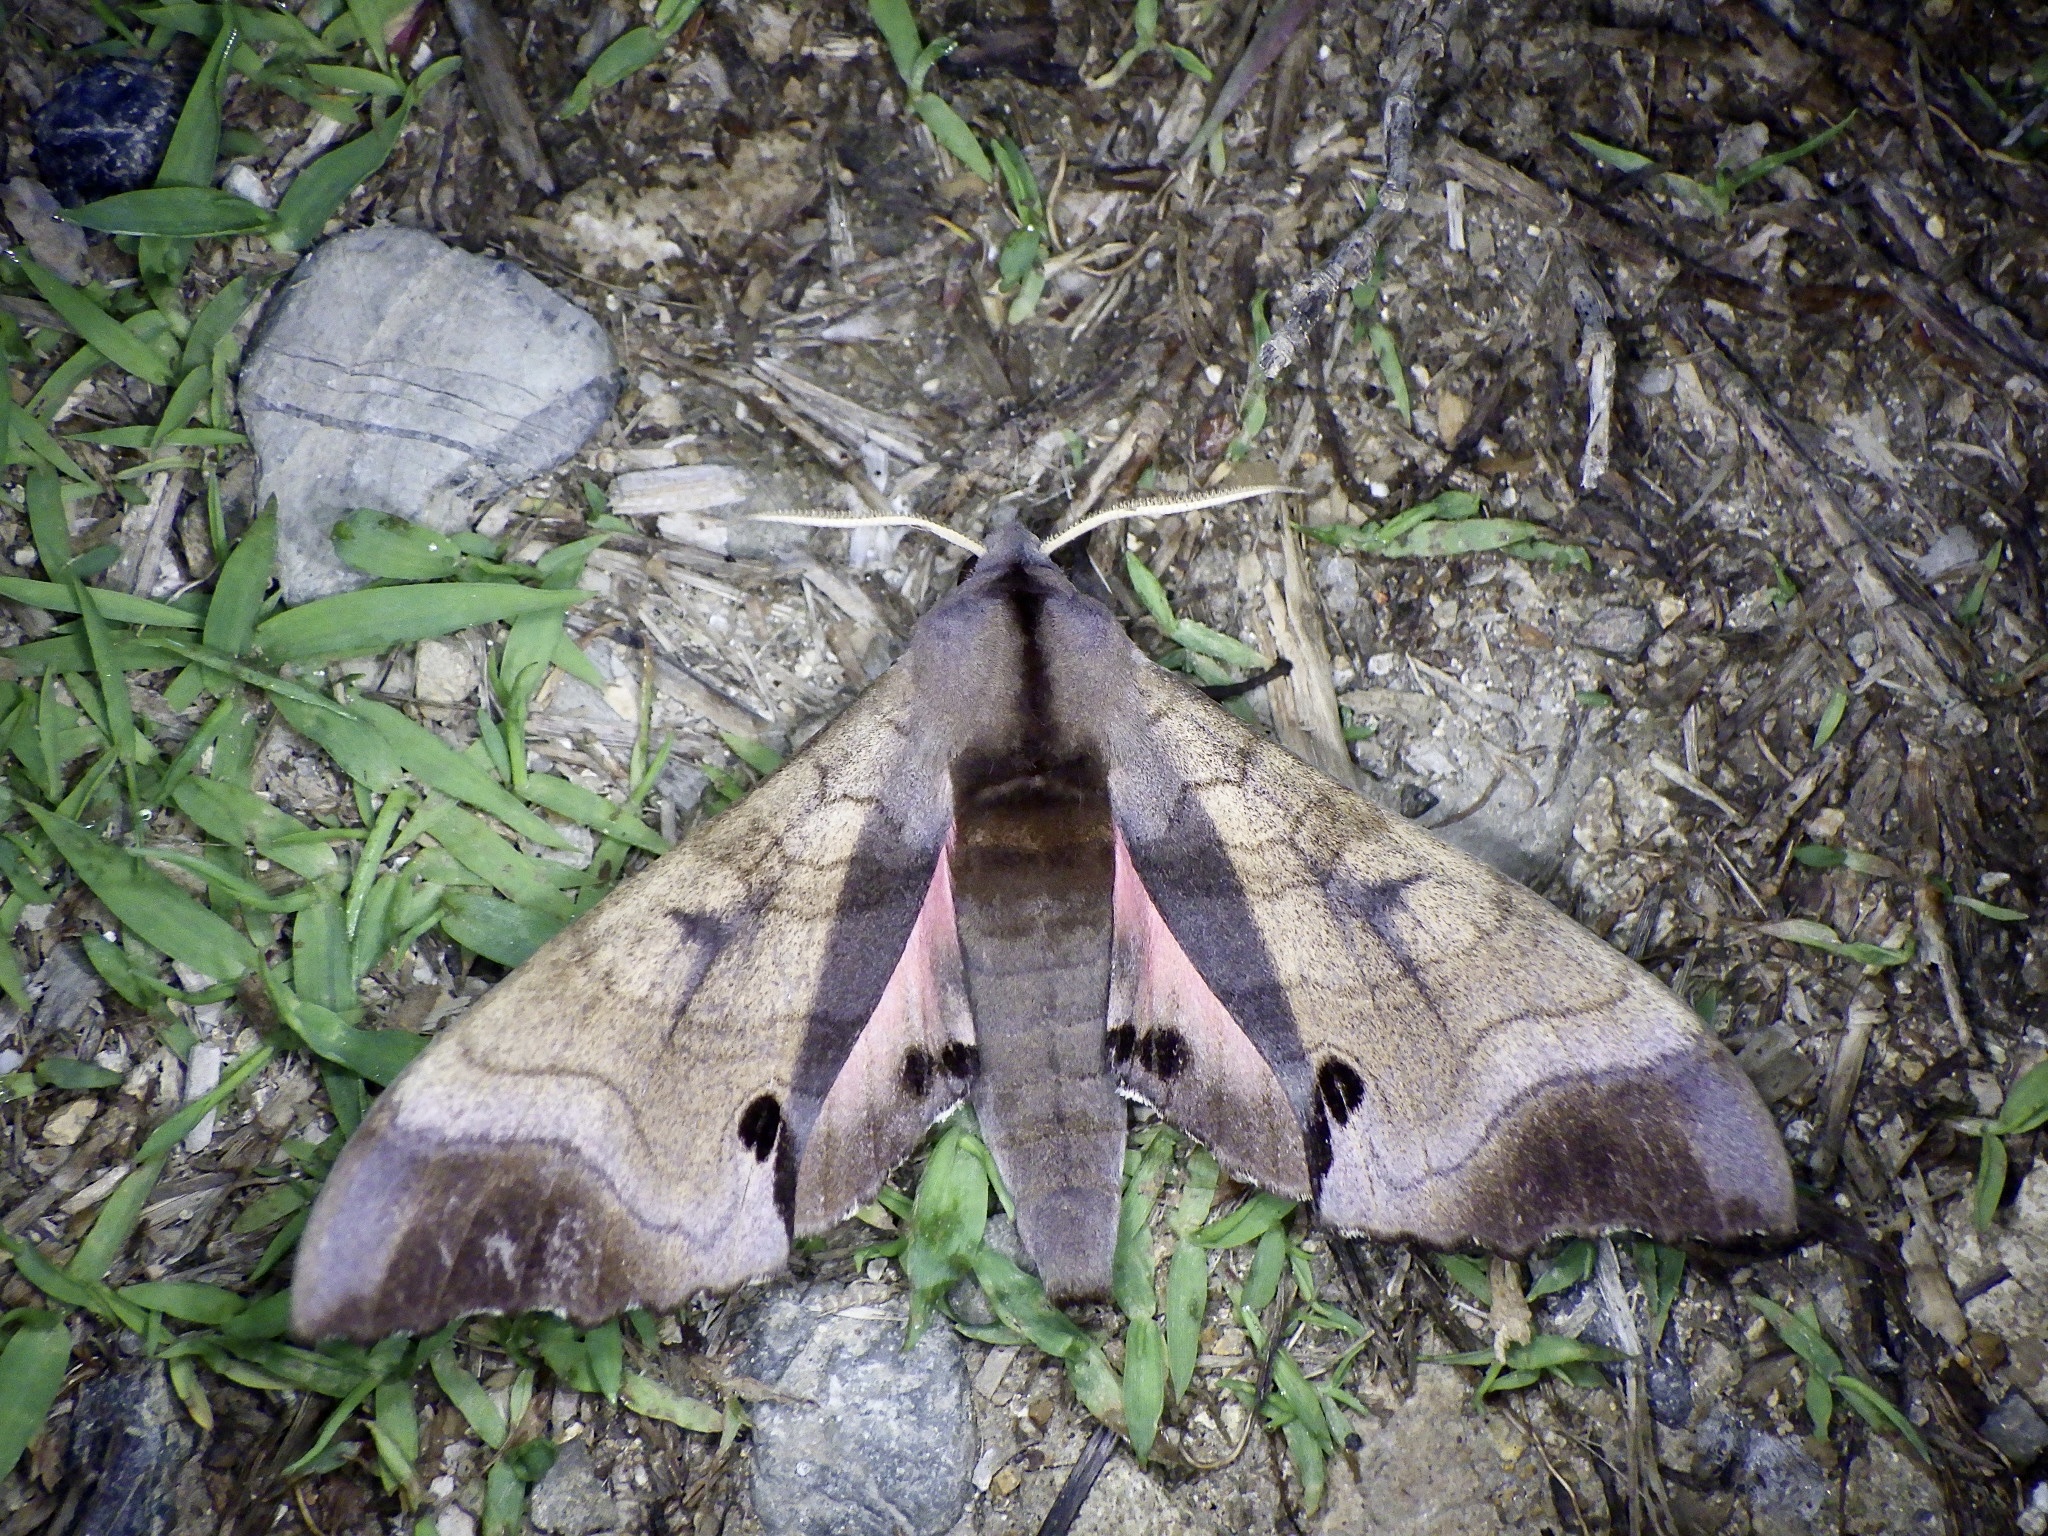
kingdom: Animalia
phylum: Arthropoda
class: Insecta
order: Lepidoptera
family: Sphingidae
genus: Marumba
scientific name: Marumba echephron
